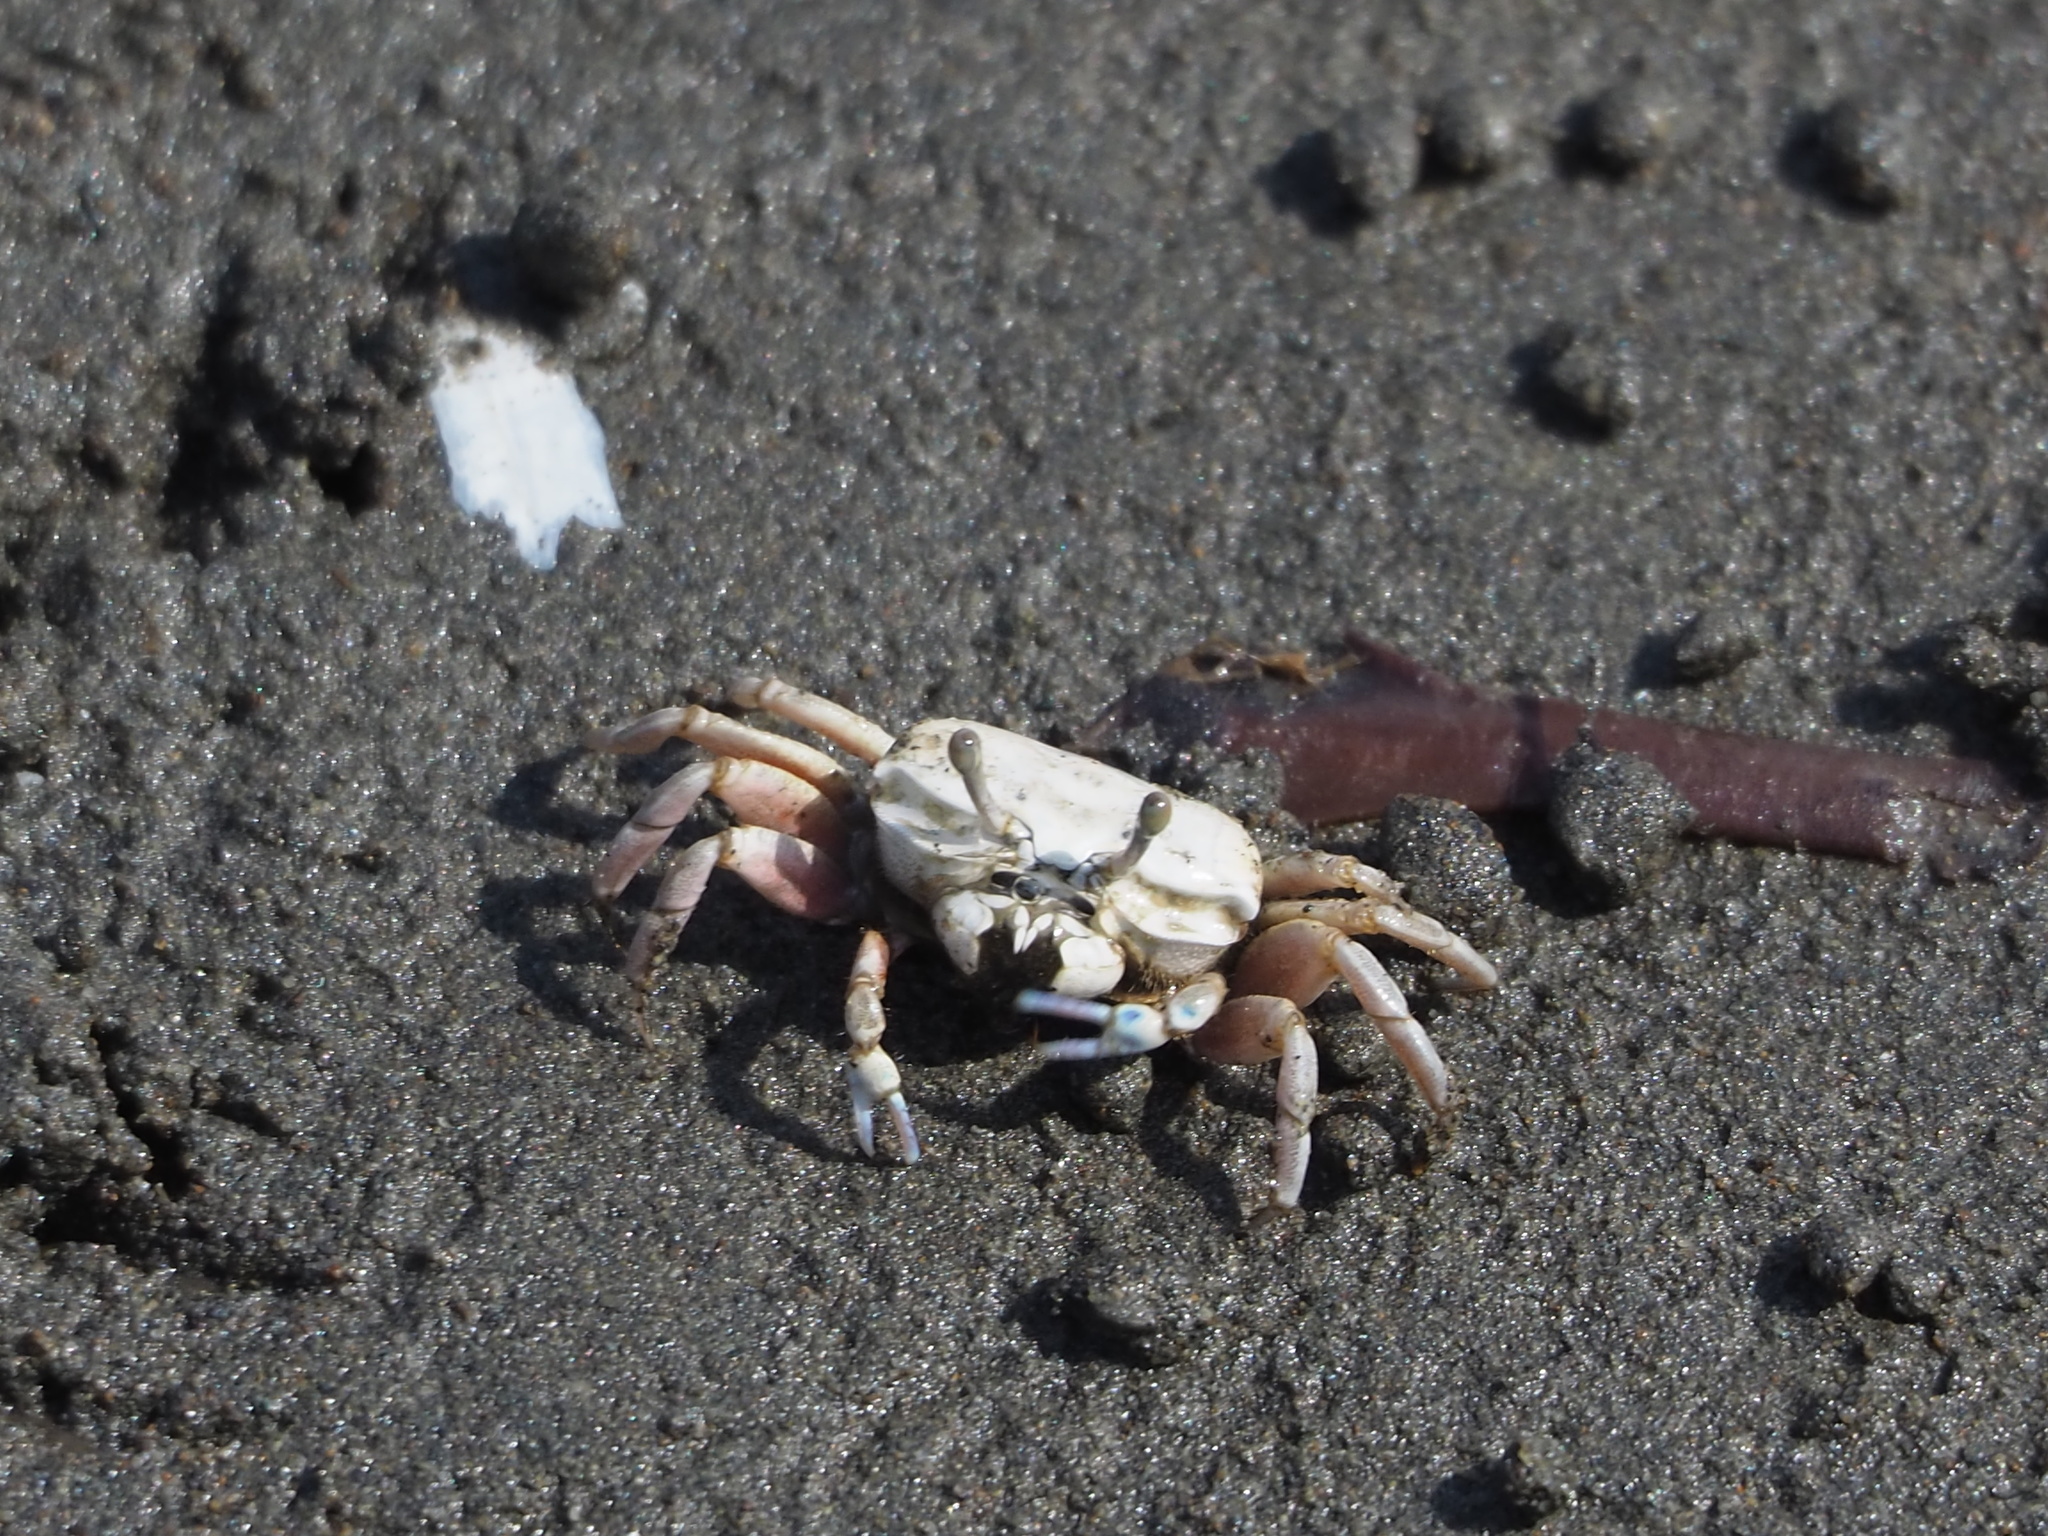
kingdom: Animalia
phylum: Arthropoda
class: Malacostraca
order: Decapoda
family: Ocypodidae
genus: Austruca
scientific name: Austruca lactea
